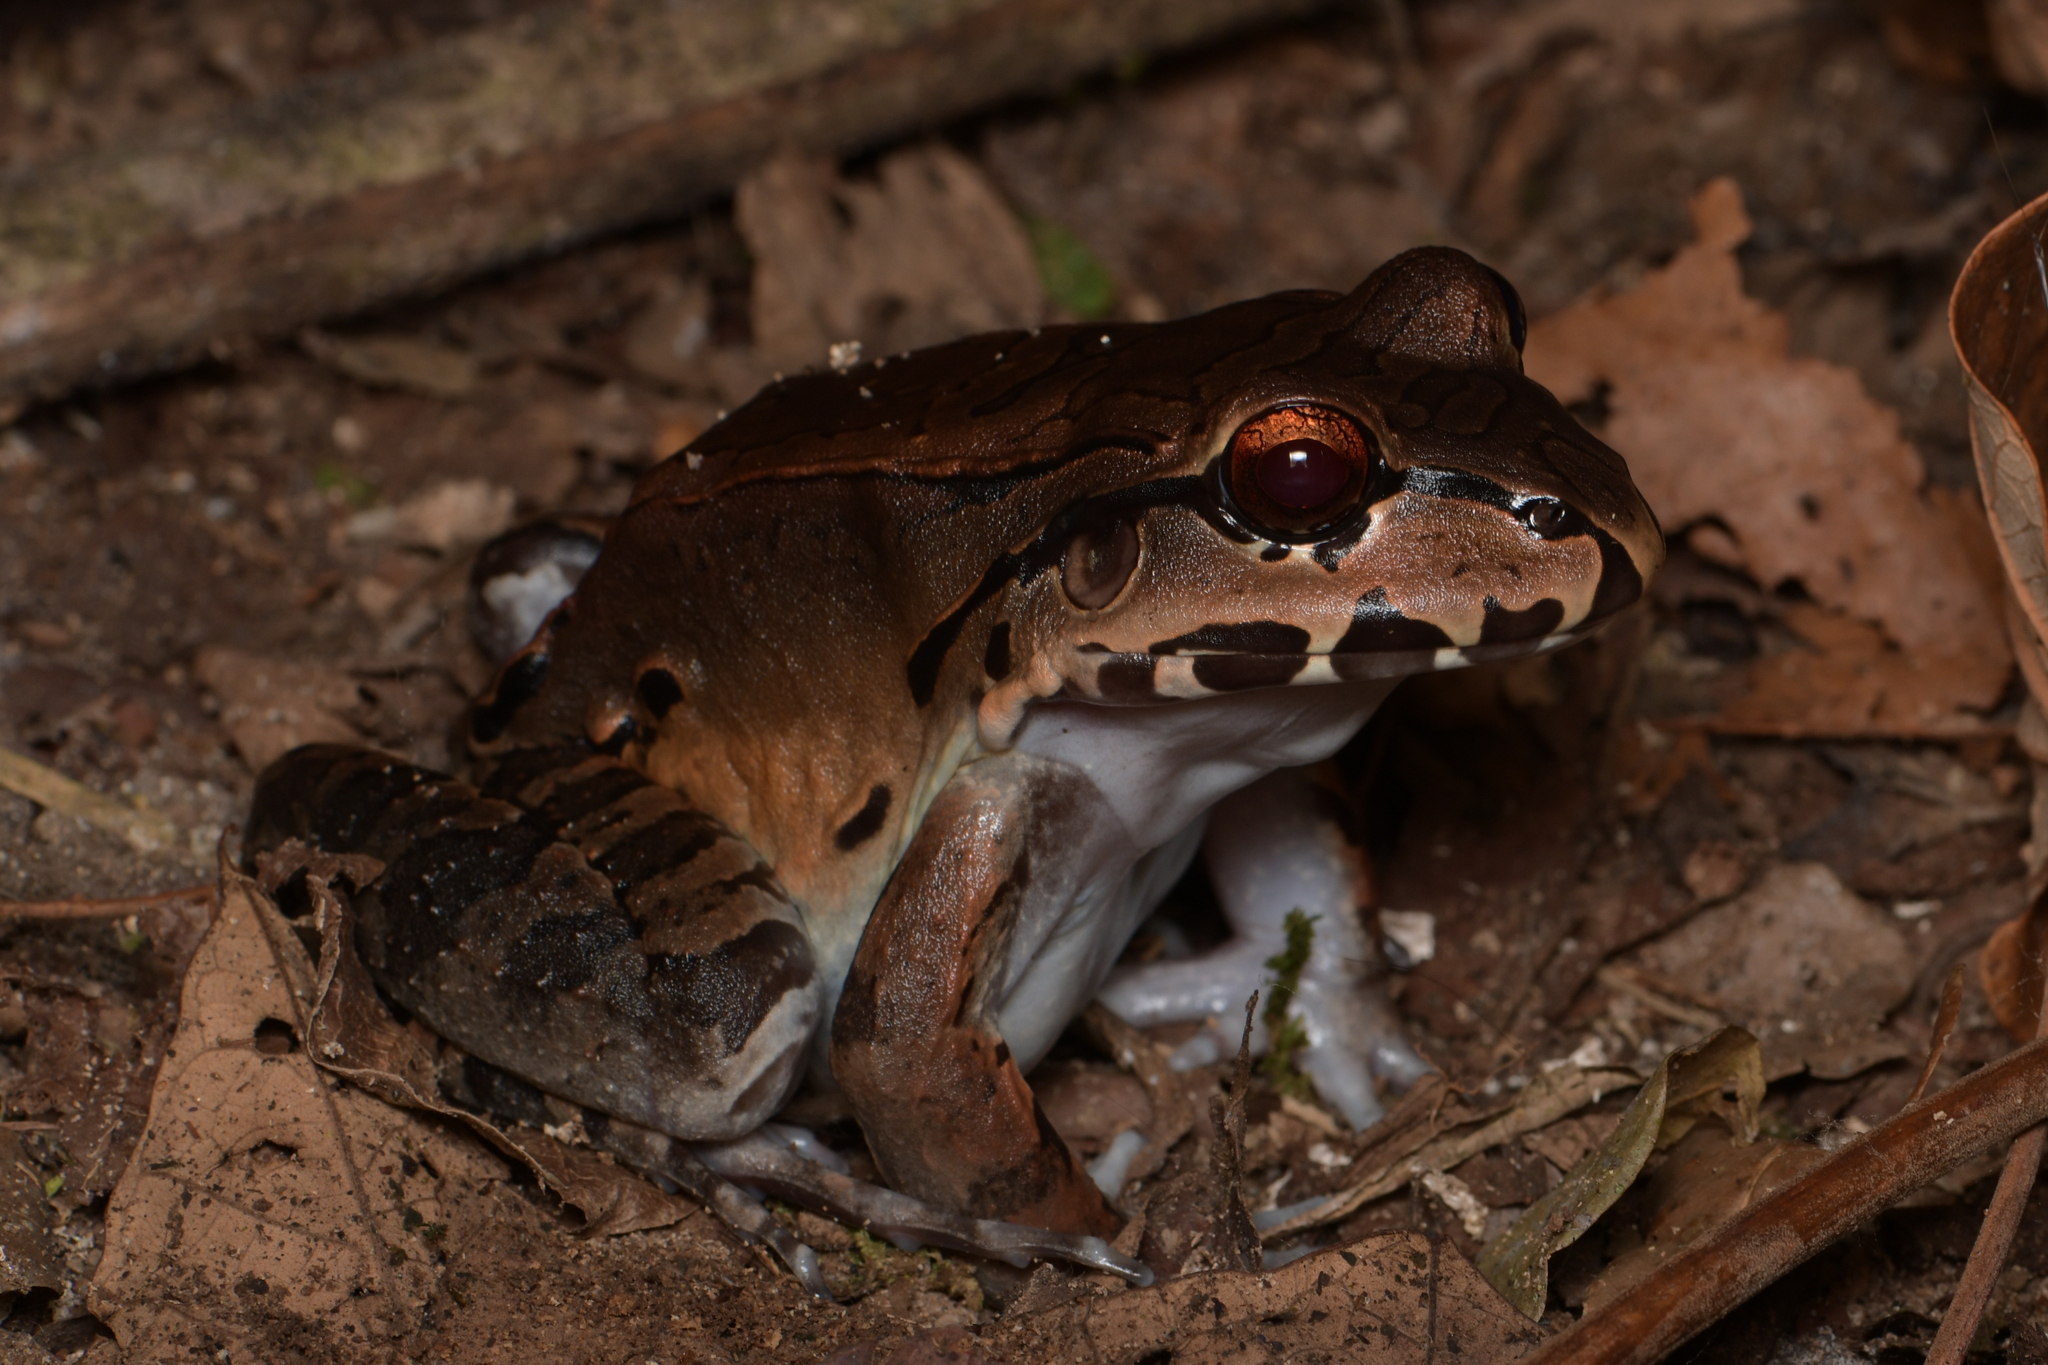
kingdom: Animalia
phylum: Chordata
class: Amphibia
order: Anura
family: Leptodactylidae
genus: Leptodactylus
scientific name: Leptodactylus savagei
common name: Savage's thin-toed frog
